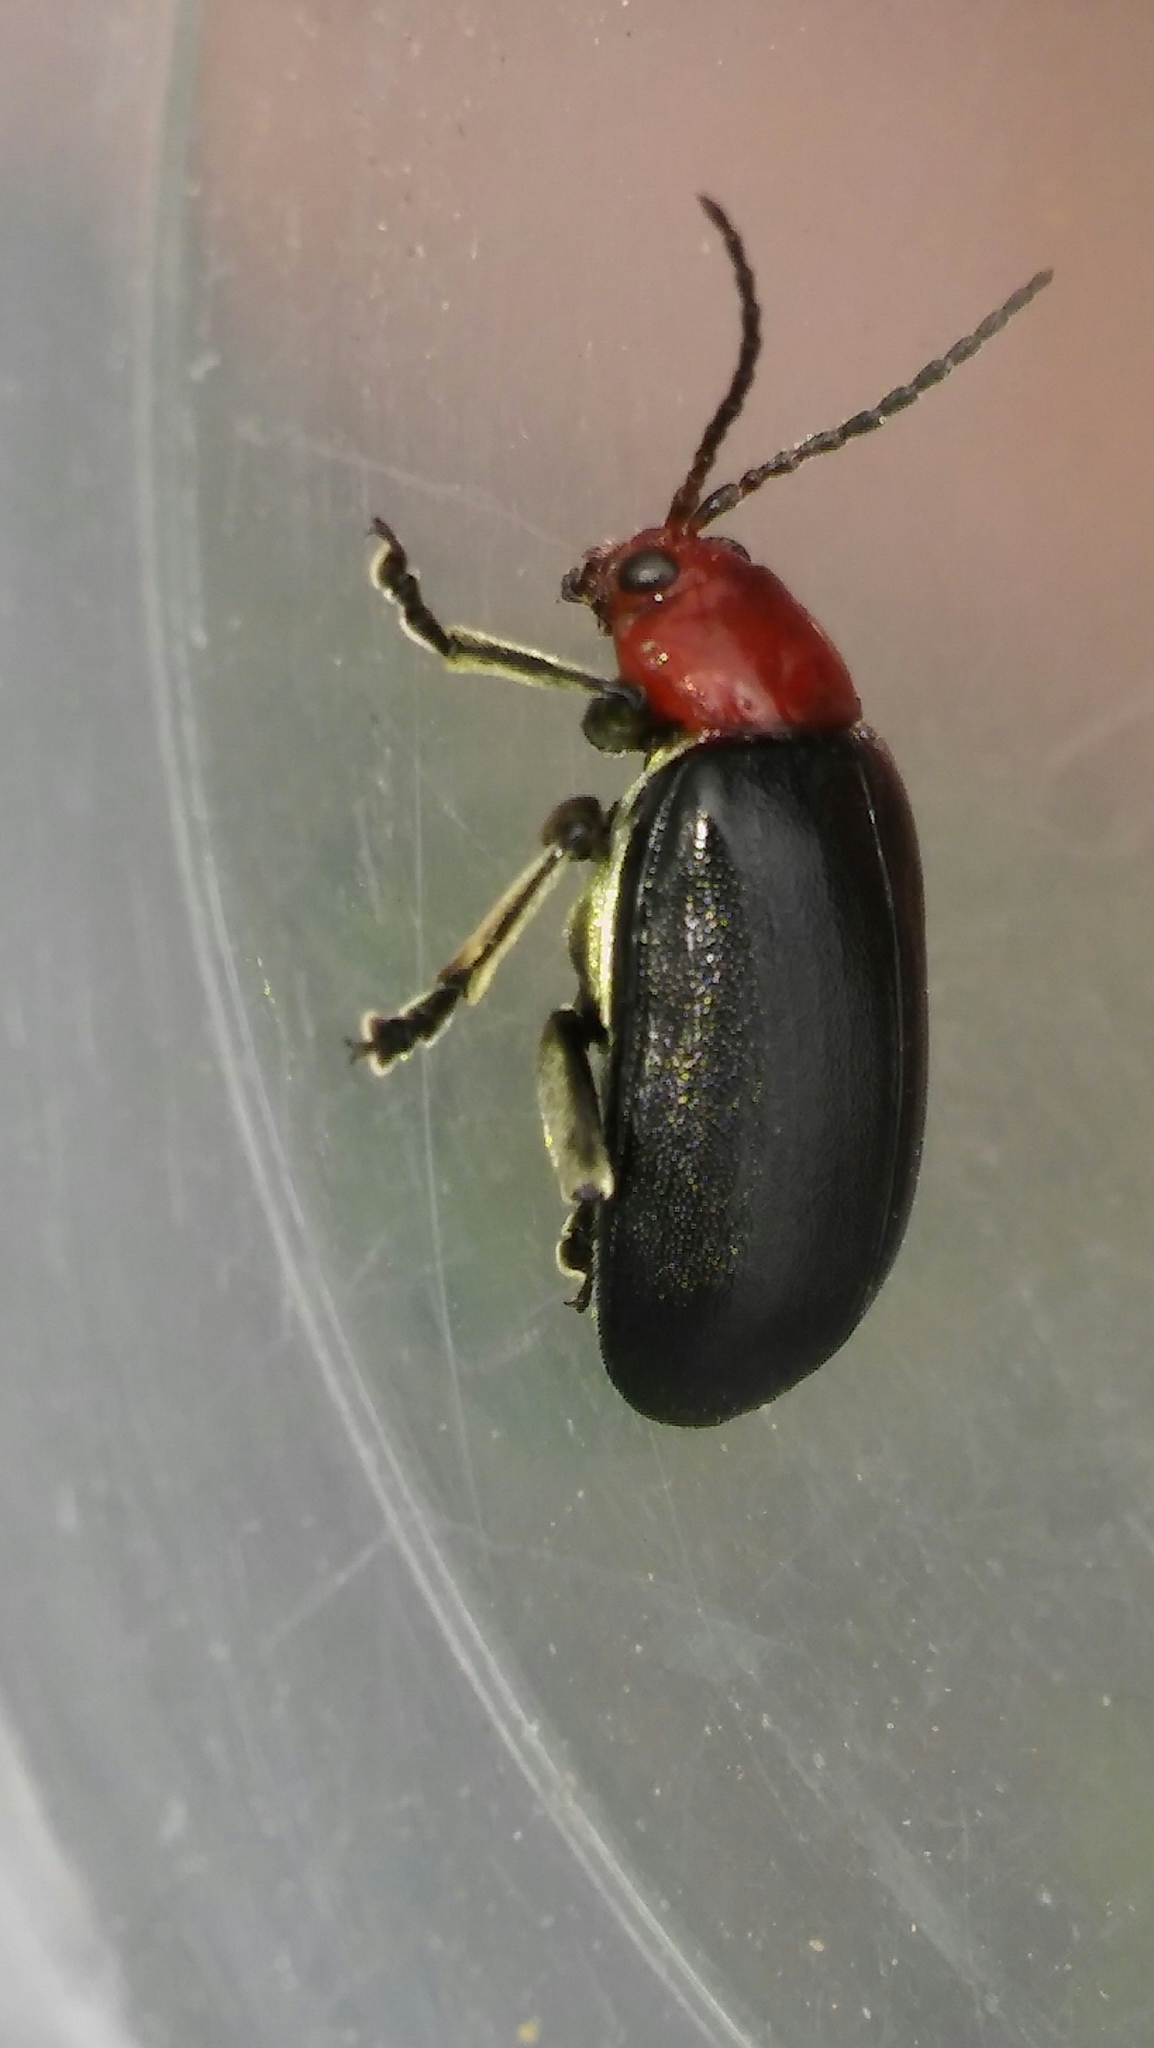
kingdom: Animalia
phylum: Arthropoda
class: Insecta
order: Coleoptera
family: Chrysomelidae
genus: Cacoscelis
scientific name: Cacoscelis
